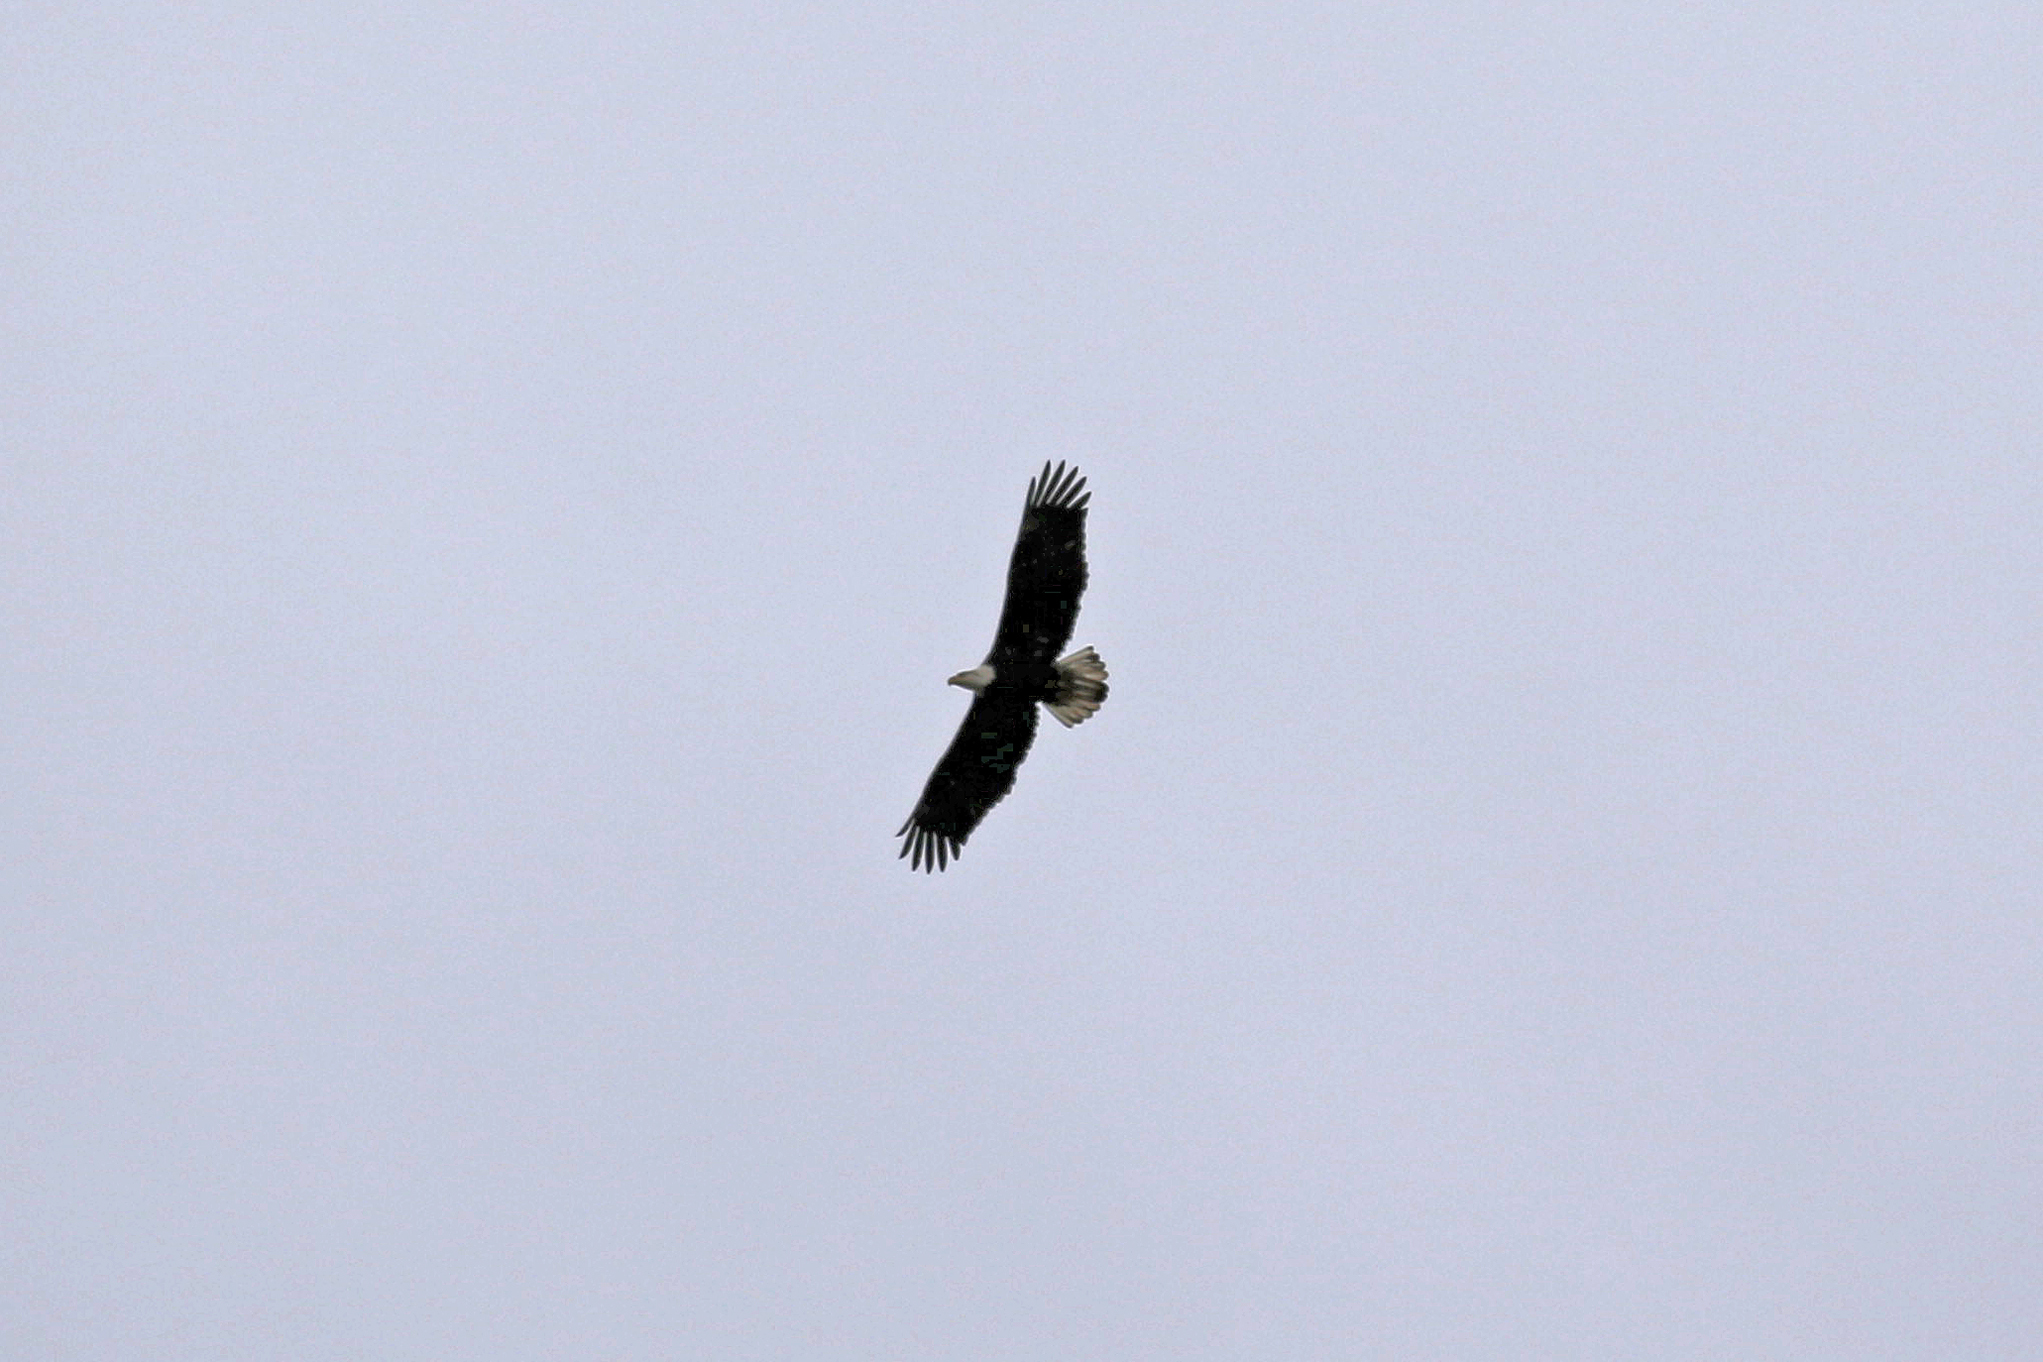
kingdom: Animalia
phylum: Chordata
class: Aves
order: Accipitriformes
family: Accipitridae
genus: Haliaeetus
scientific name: Haliaeetus leucocephalus
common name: Bald eagle
